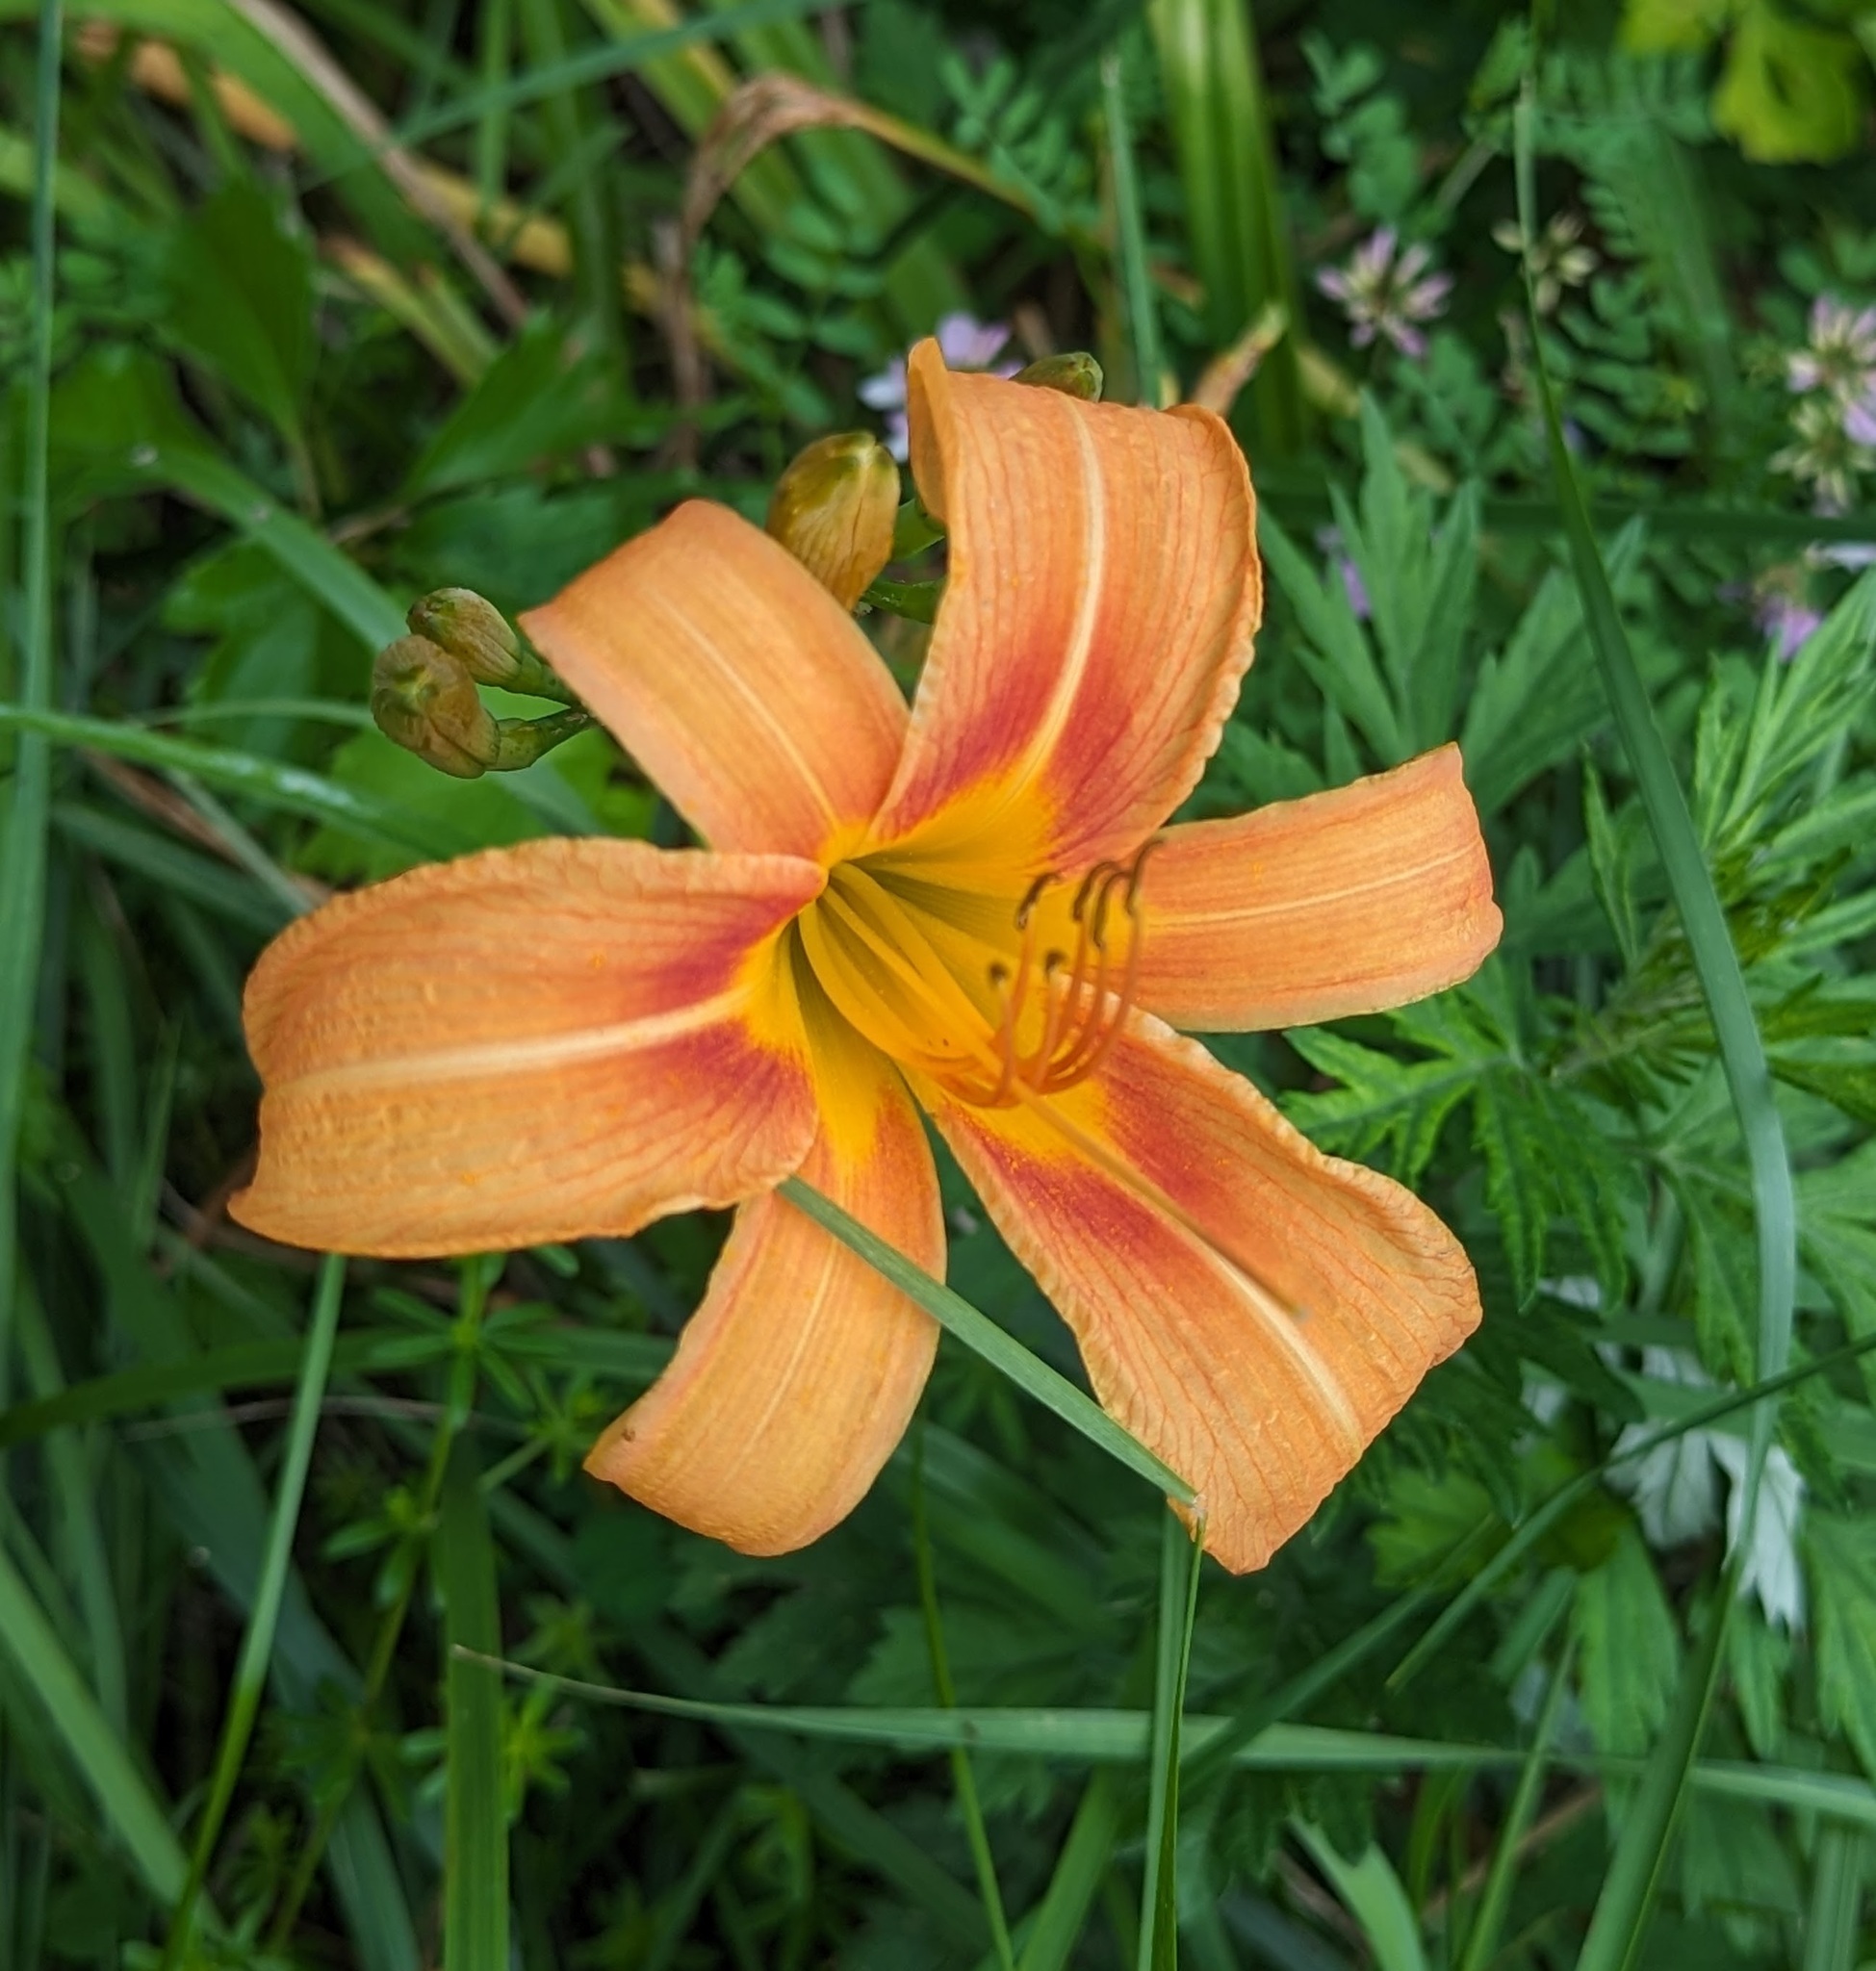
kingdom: Plantae
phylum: Tracheophyta
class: Liliopsida
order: Asparagales
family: Asphodelaceae
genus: Hemerocallis
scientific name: Hemerocallis fulva
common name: Orange day-lily
